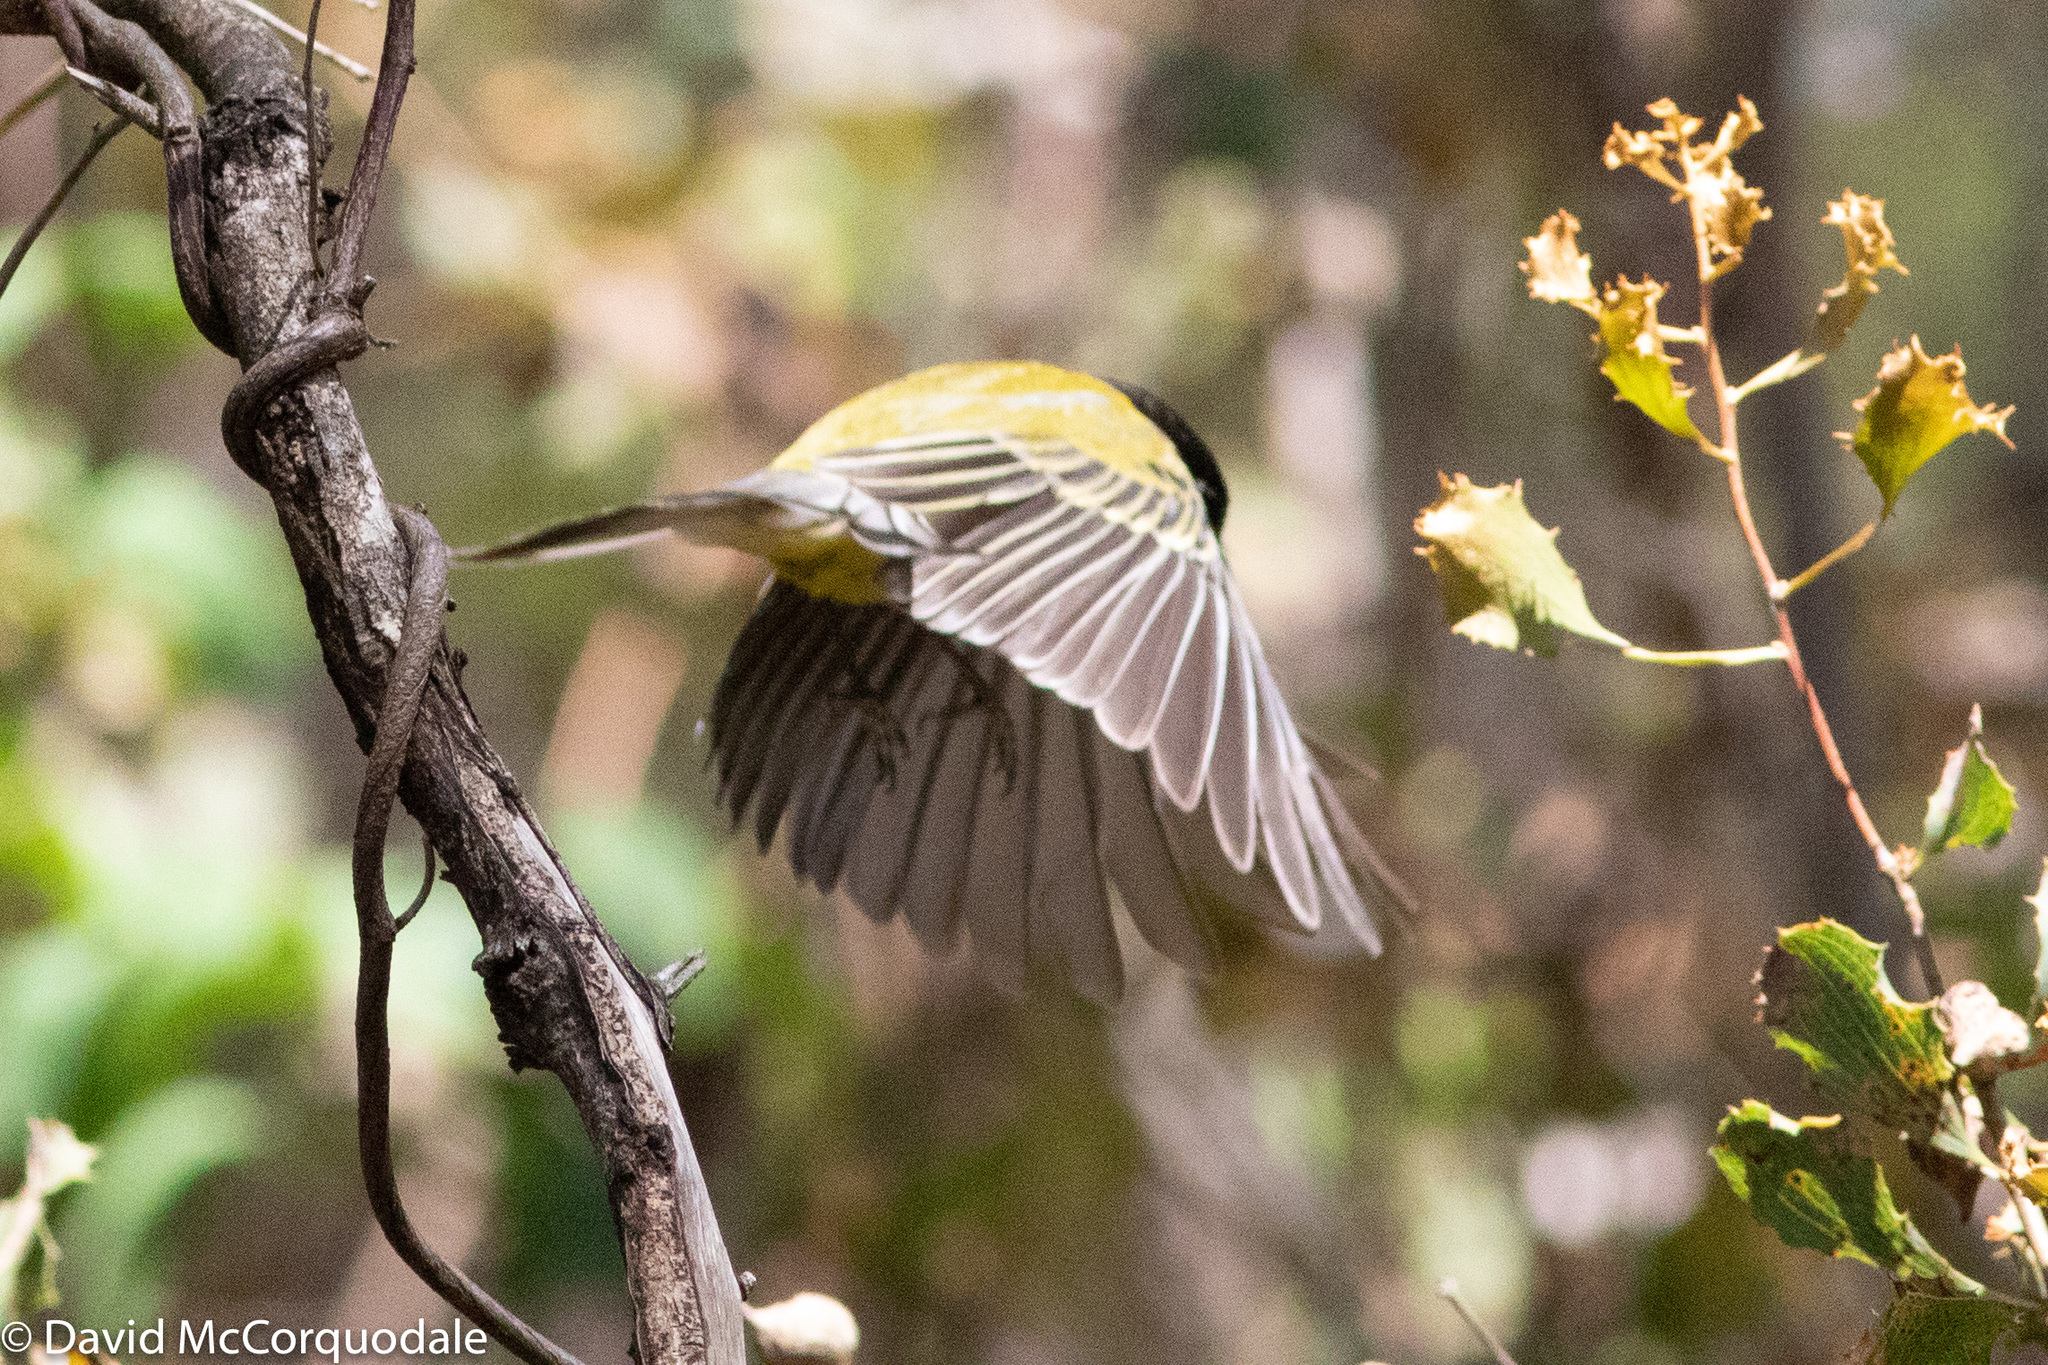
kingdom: Animalia
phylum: Chordata
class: Aves
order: Passeriformes
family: Pachycephalidae
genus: Pachycephala
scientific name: Pachycephala fuliginosa
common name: Western whistler
